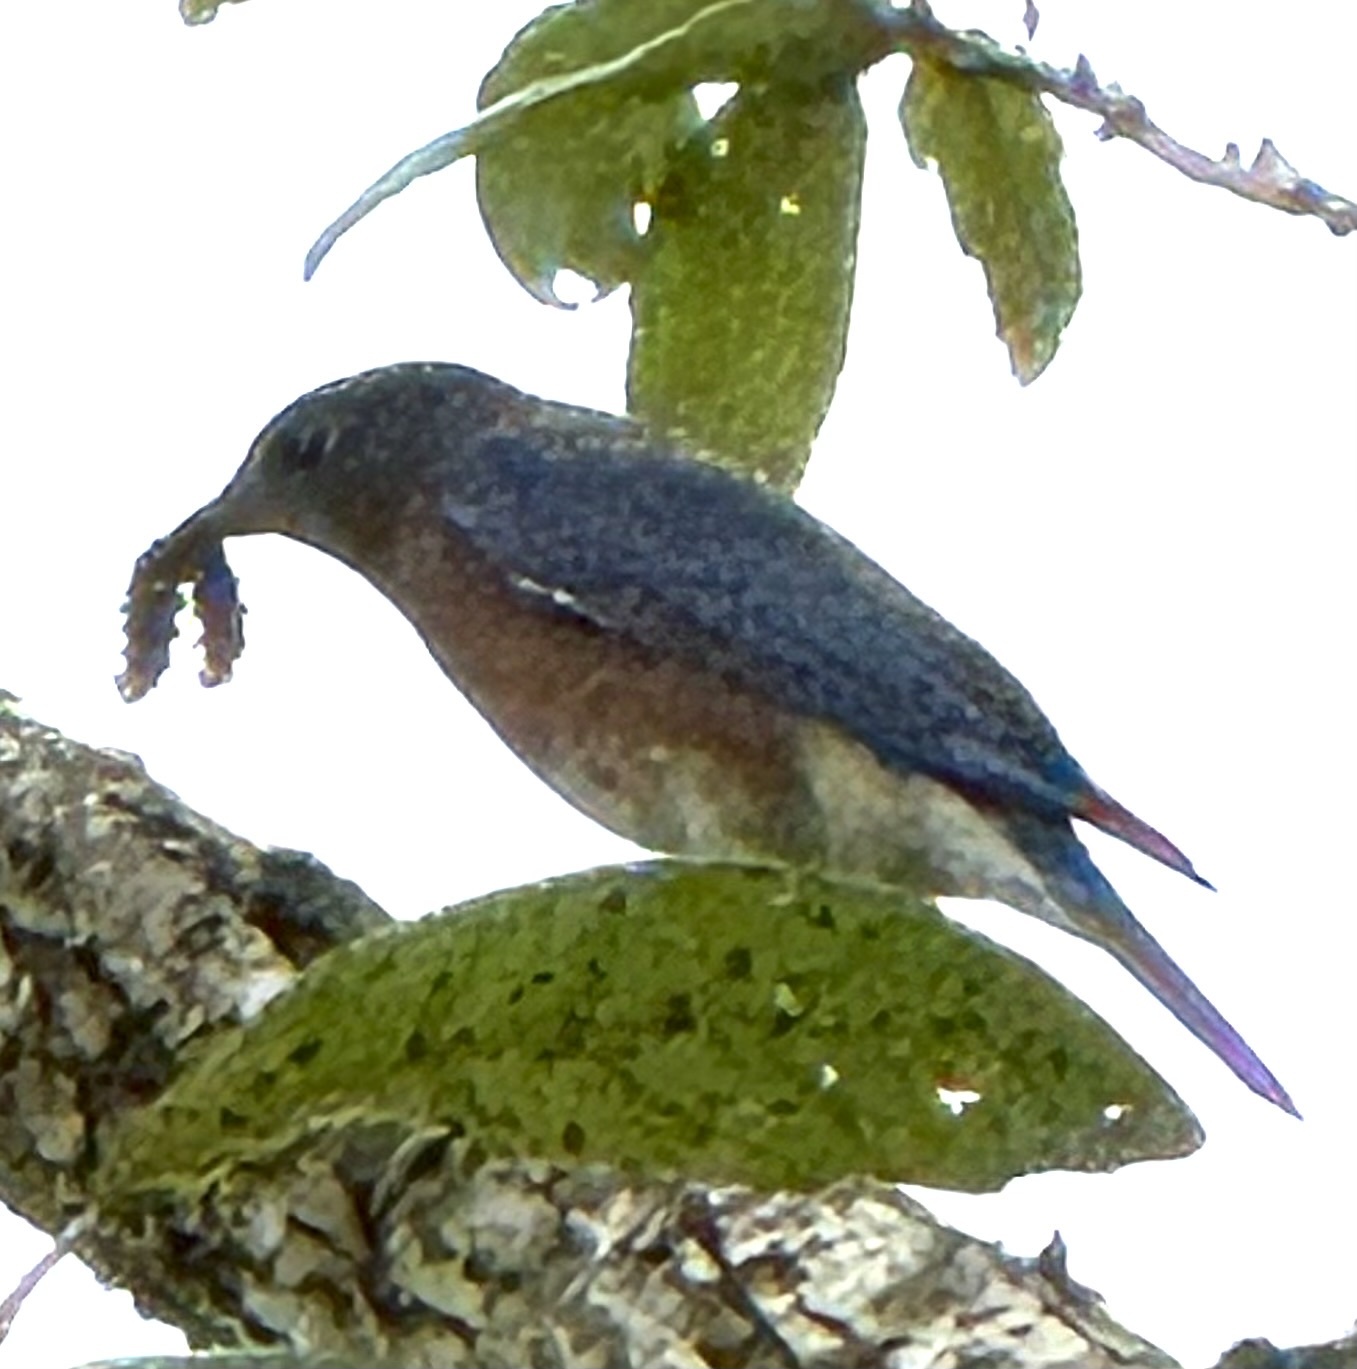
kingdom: Animalia
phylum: Chordata
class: Aves
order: Passeriformes
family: Turdidae
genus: Sialia
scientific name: Sialia sialis
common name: Eastern bluebird
